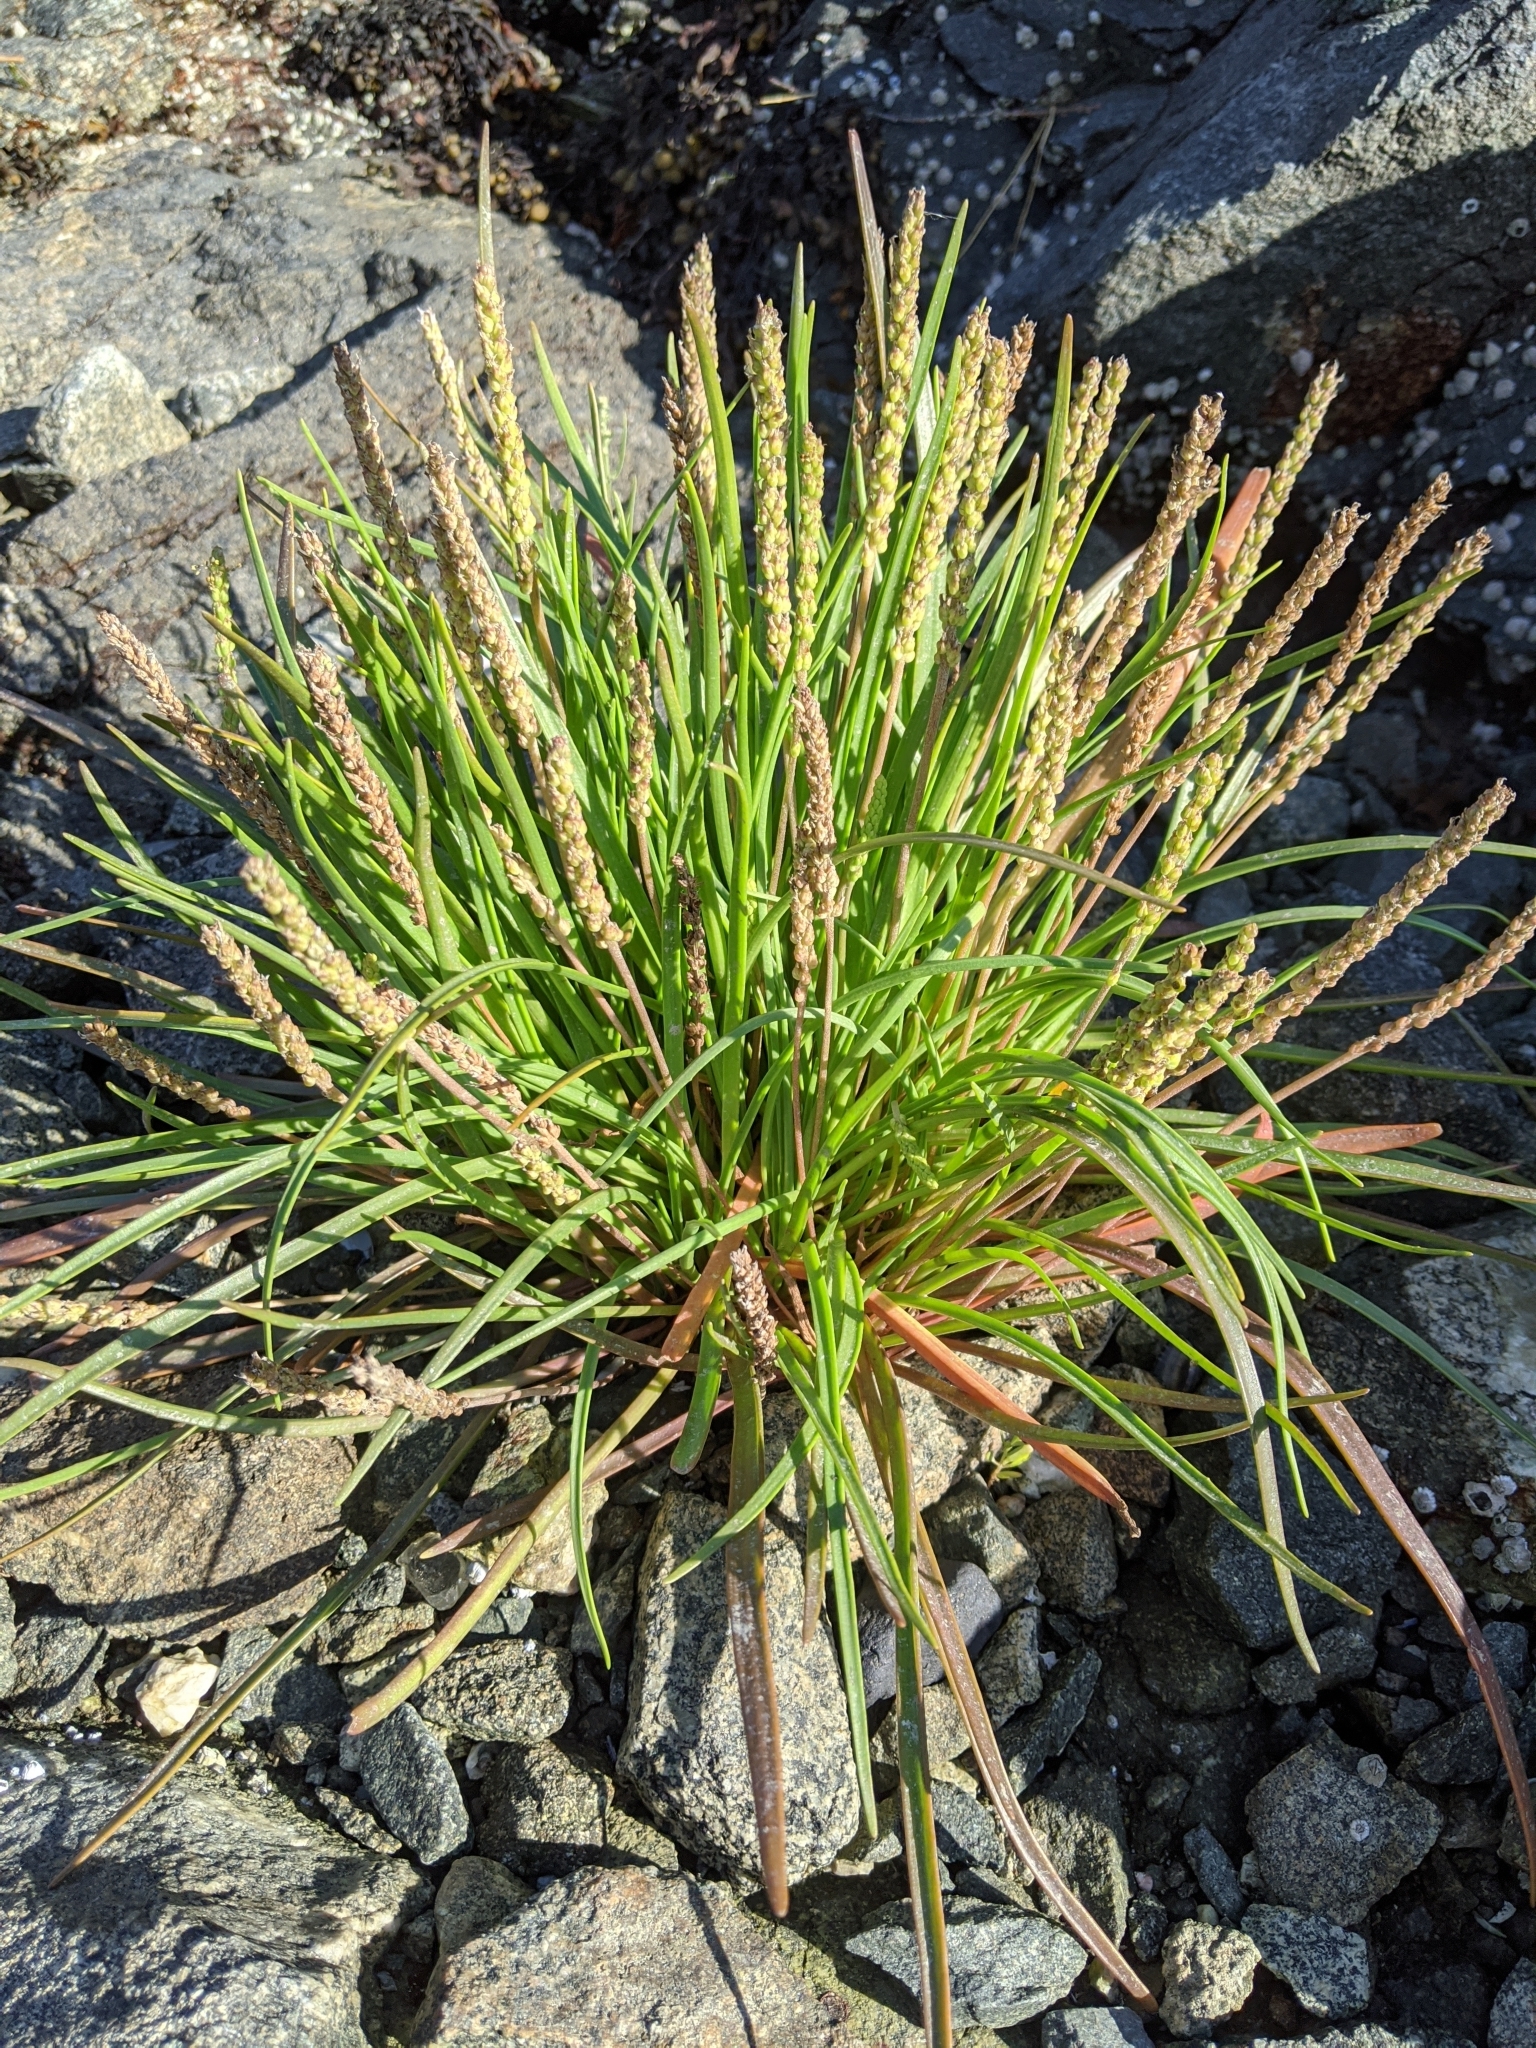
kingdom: Plantae
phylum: Tracheophyta
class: Magnoliopsida
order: Lamiales
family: Plantaginaceae
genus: Plantago
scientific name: Plantago maritima
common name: Sea plantain
